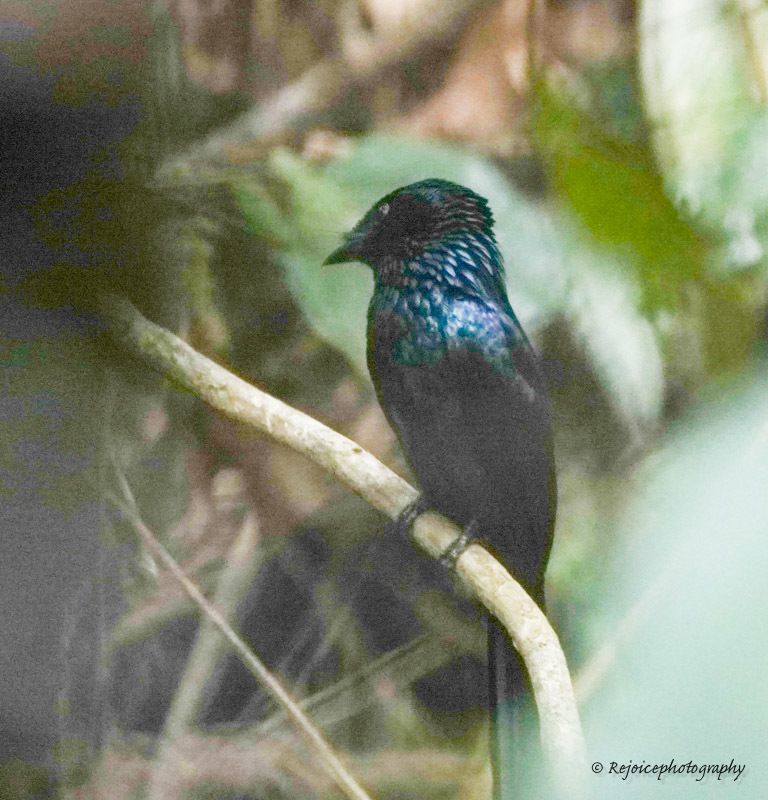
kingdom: Animalia
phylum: Chordata
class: Aves
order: Passeriformes
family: Dicruridae
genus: Dicrurus
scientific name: Dicrurus remifer
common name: Lesser racket-tailed drongo
